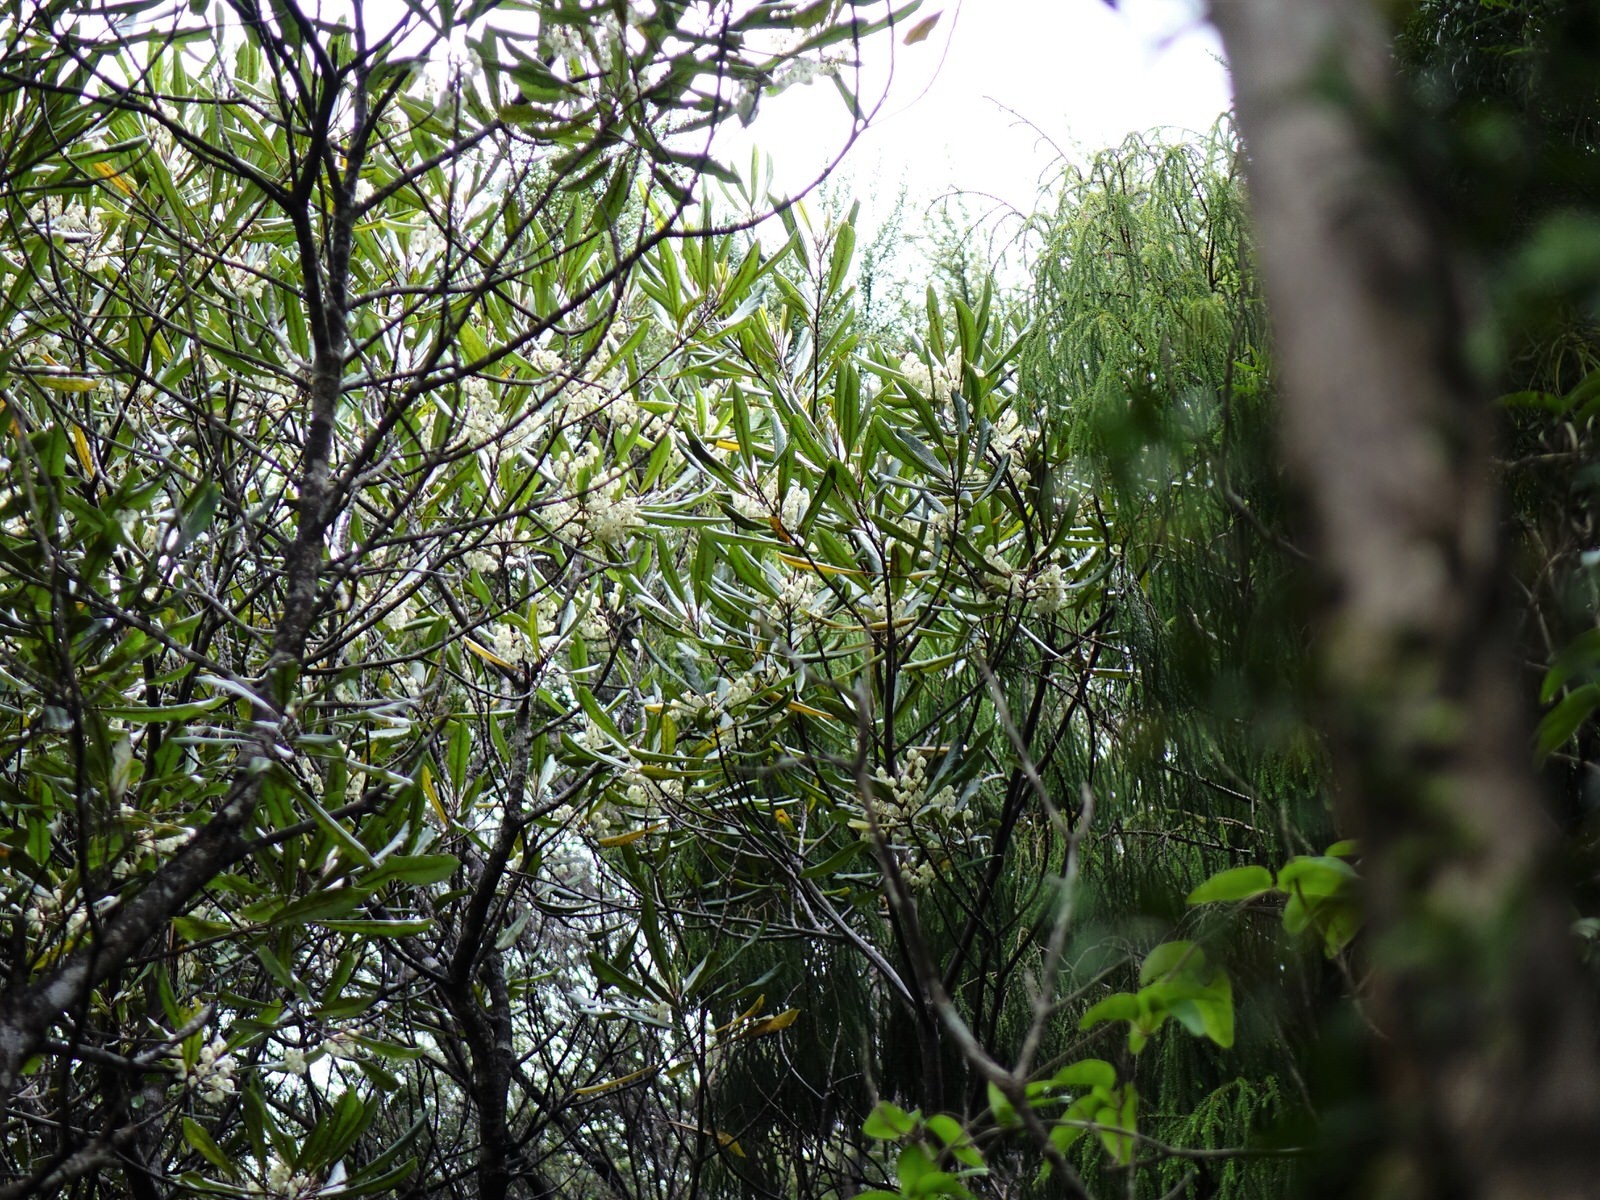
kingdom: Plantae
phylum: Tracheophyta
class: Magnoliopsida
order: Oxalidales
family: Elaeocarpaceae
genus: Elaeocarpus
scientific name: Elaeocarpus dentatus
